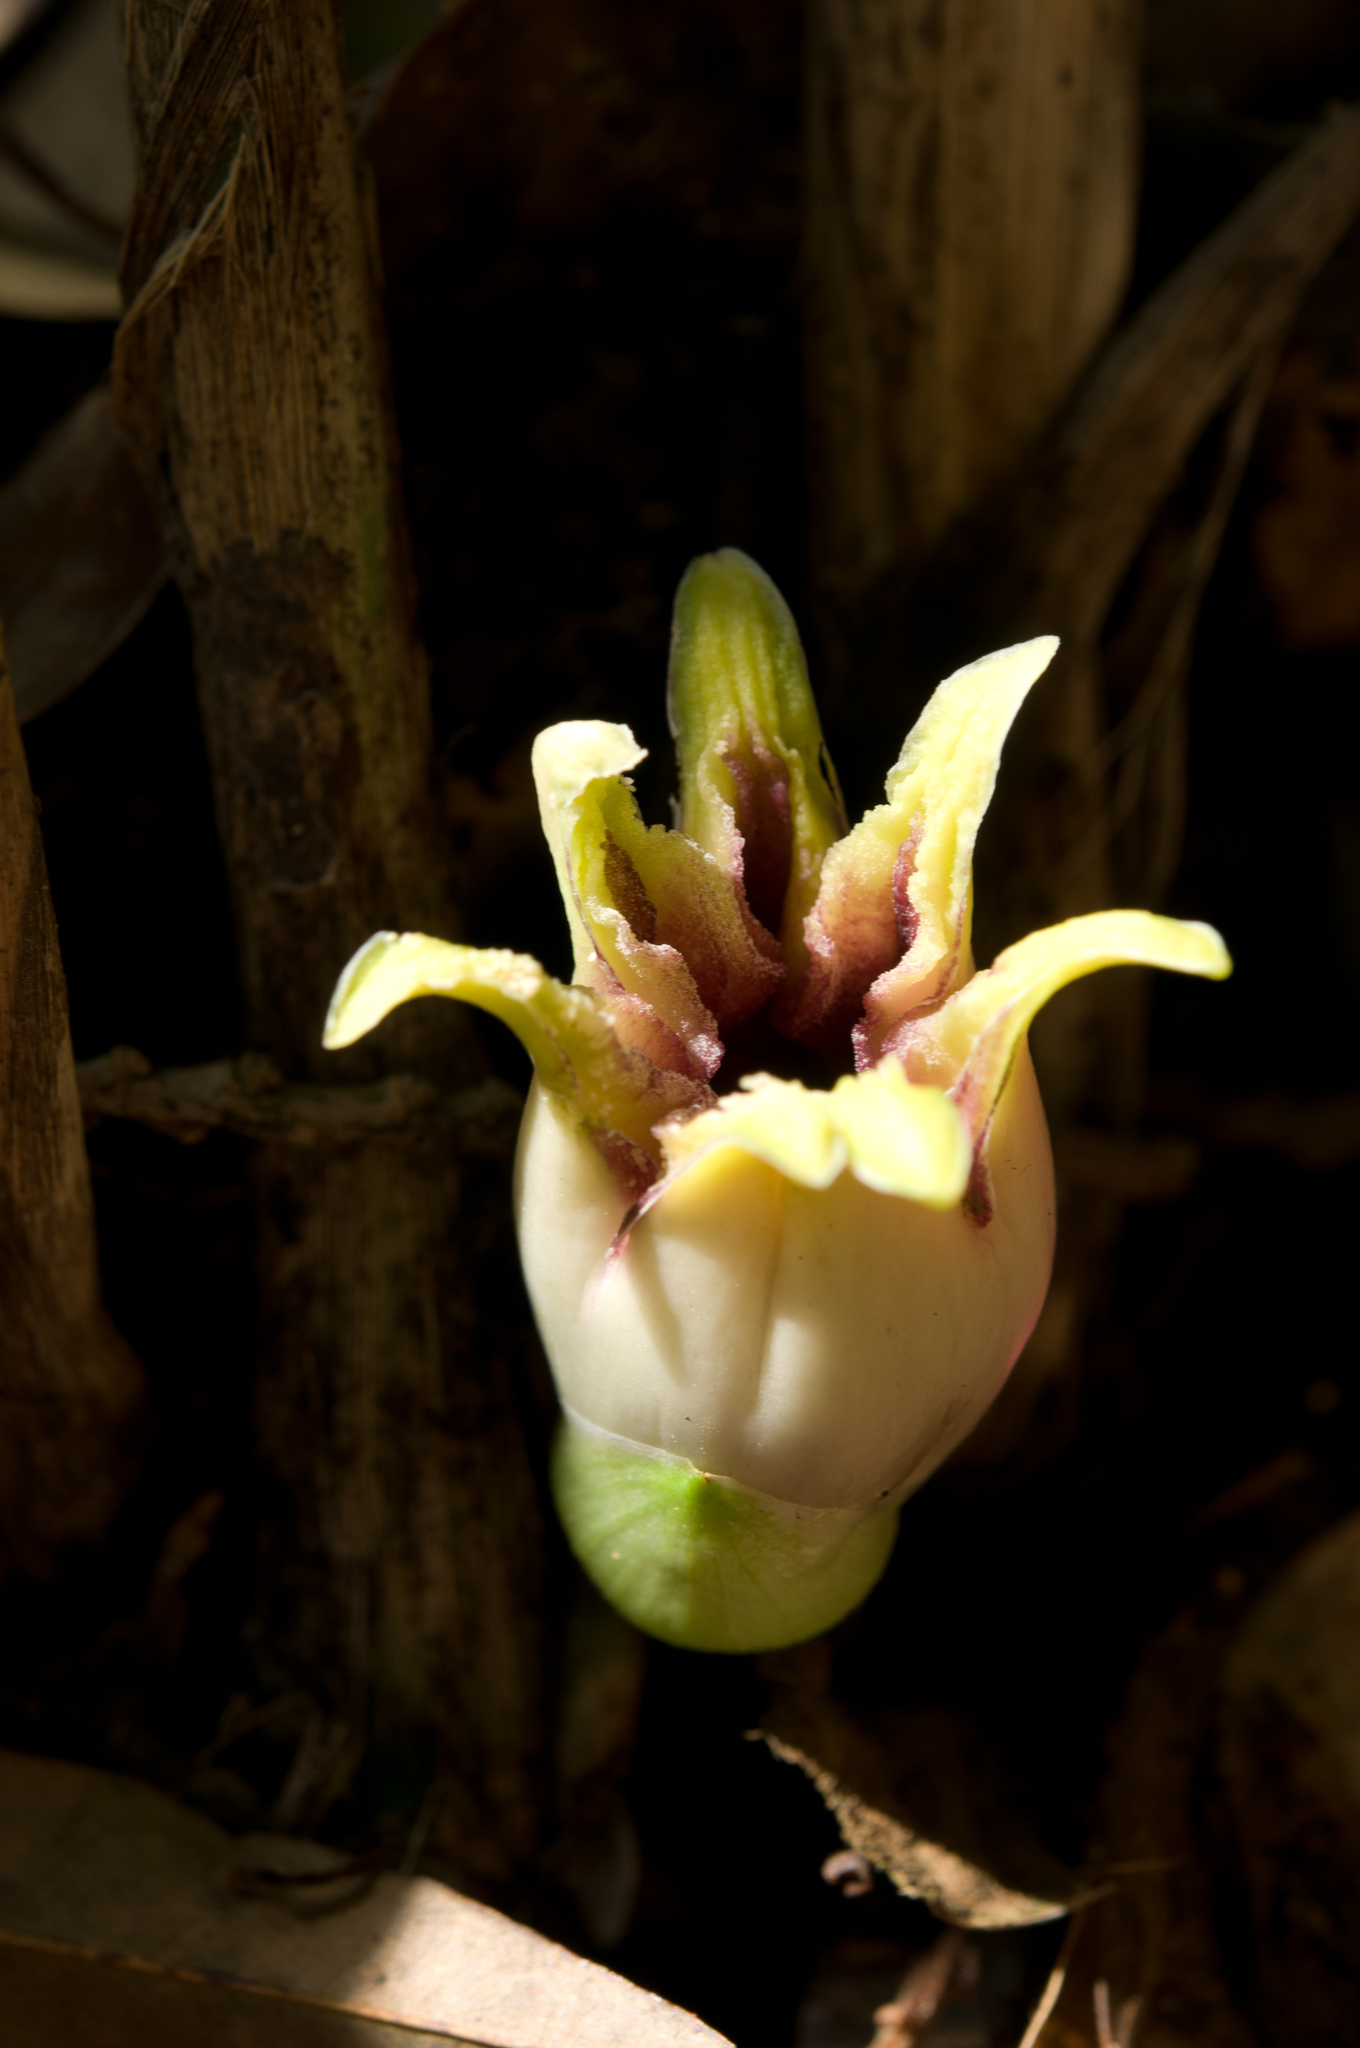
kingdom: Plantae
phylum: Tracheophyta
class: Liliopsida
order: Asparagales
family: Asparagaceae
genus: Aspidistra
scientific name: Aspidistra attenuata
